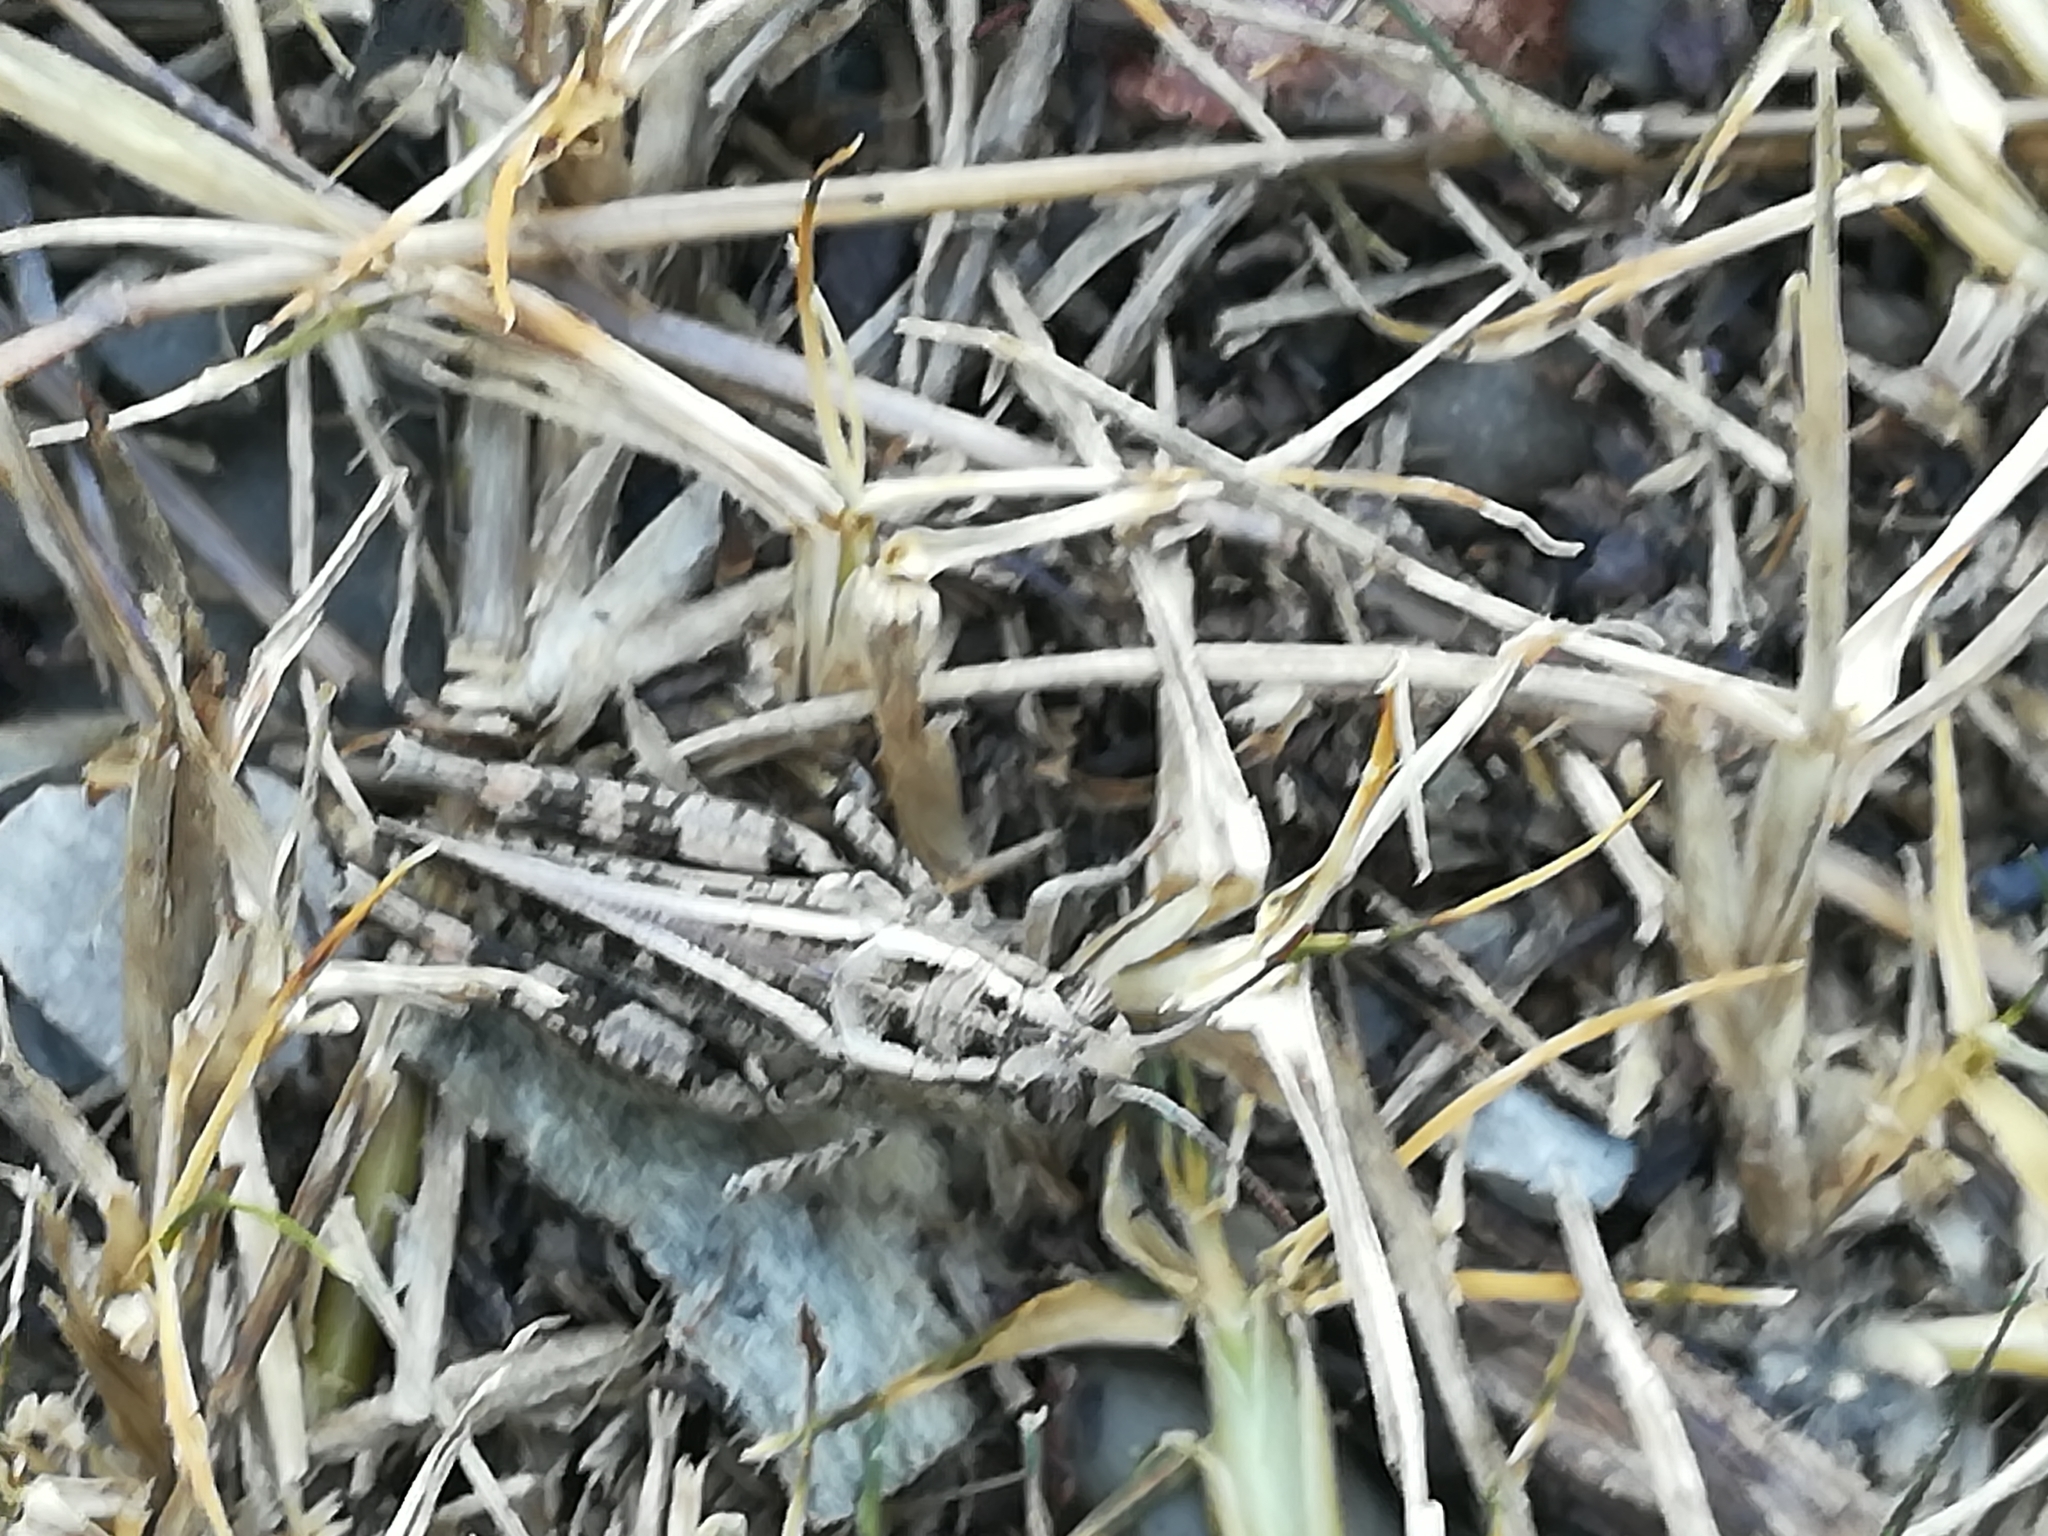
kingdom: Animalia
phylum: Arthropoda
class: Insecta
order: Orthoptera
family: Acrididae
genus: Calliptamus
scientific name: Calliptamus italicus
